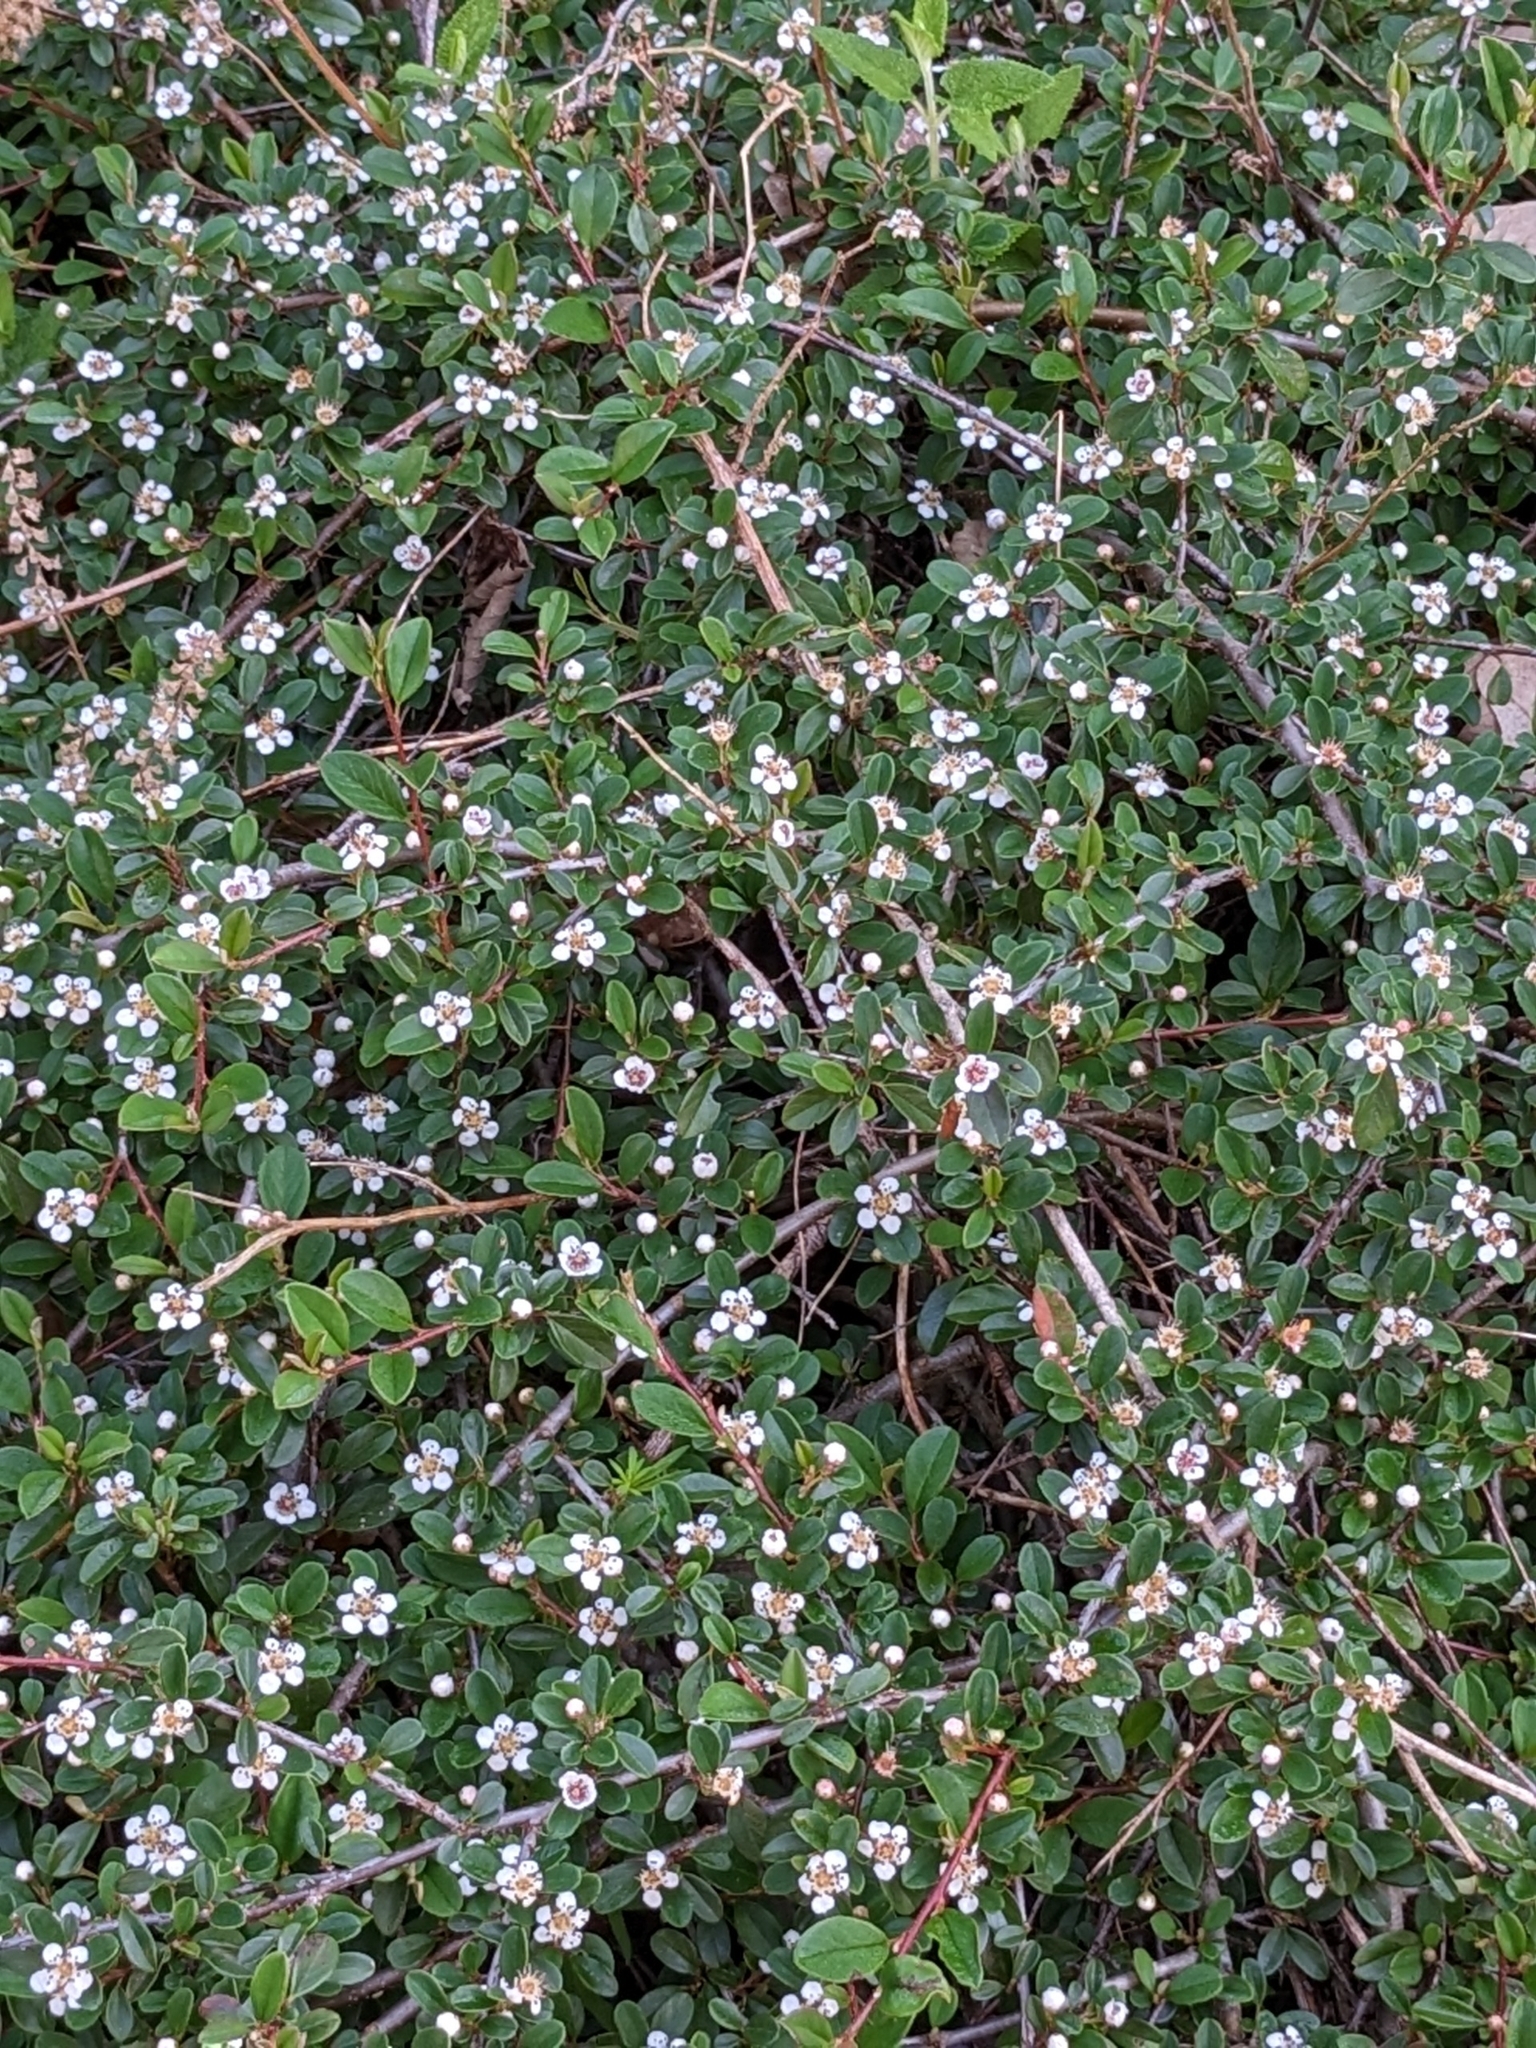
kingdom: Plantae
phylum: Tracheophyta
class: Magnoliopsida
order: Rosales
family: Rosaceae
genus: Cotoneaster
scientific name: Cotoneaster suecicus
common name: Swedish cotoneaster
